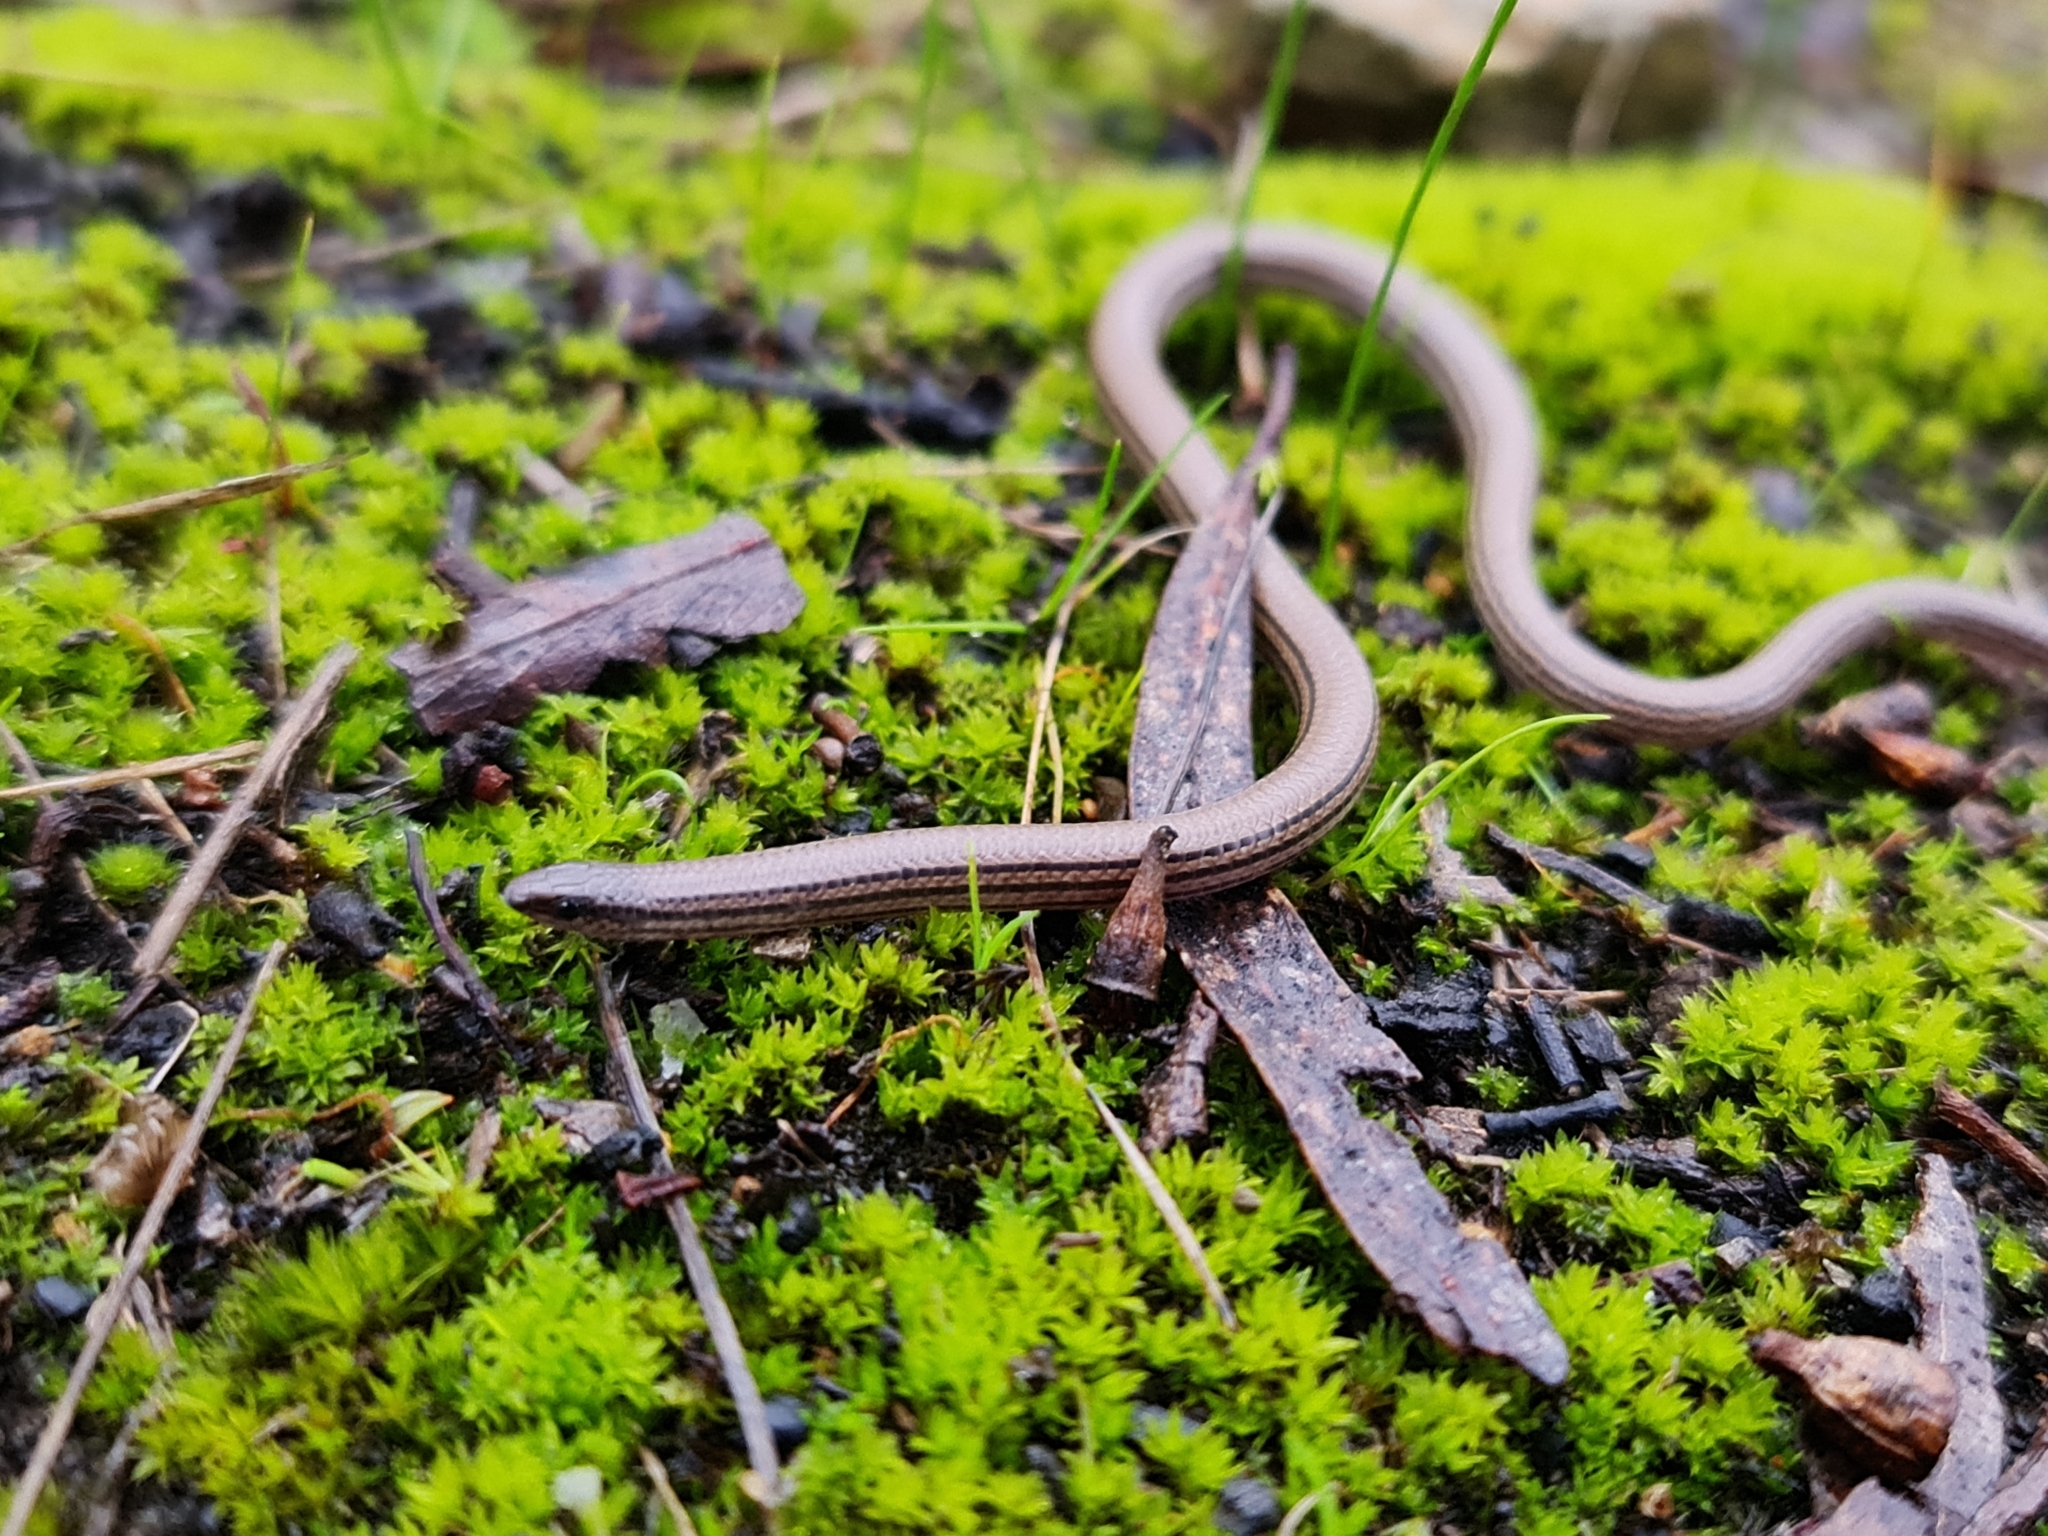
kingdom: Animalia
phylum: Chordata
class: Squamata
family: Pygopodidae
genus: Aprasia
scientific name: Aprasia striolata
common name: Striated worm-lizard
